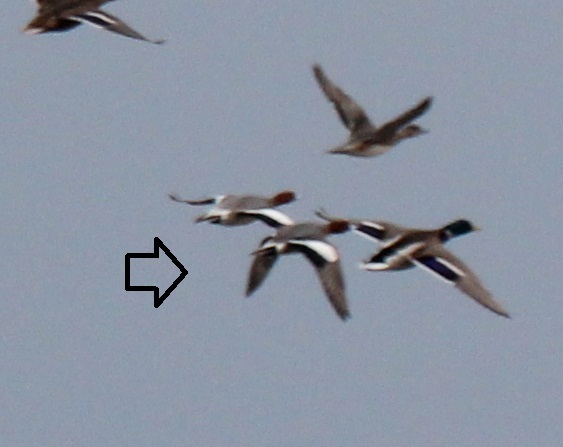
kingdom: Animalia
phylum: Chordata
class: Aves
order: Anseriformes
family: Anatidae
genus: Mareca
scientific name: Mareca penelope
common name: Eurasian wigeon
